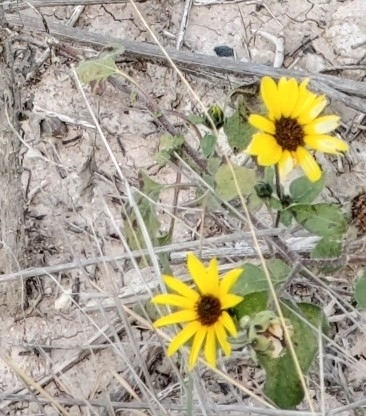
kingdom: Plantae
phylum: Tracheophyta
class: Magnoliopsida
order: Asterales
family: Asteraceae
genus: Helianthus
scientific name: Helianthus annuus
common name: Sunflower
